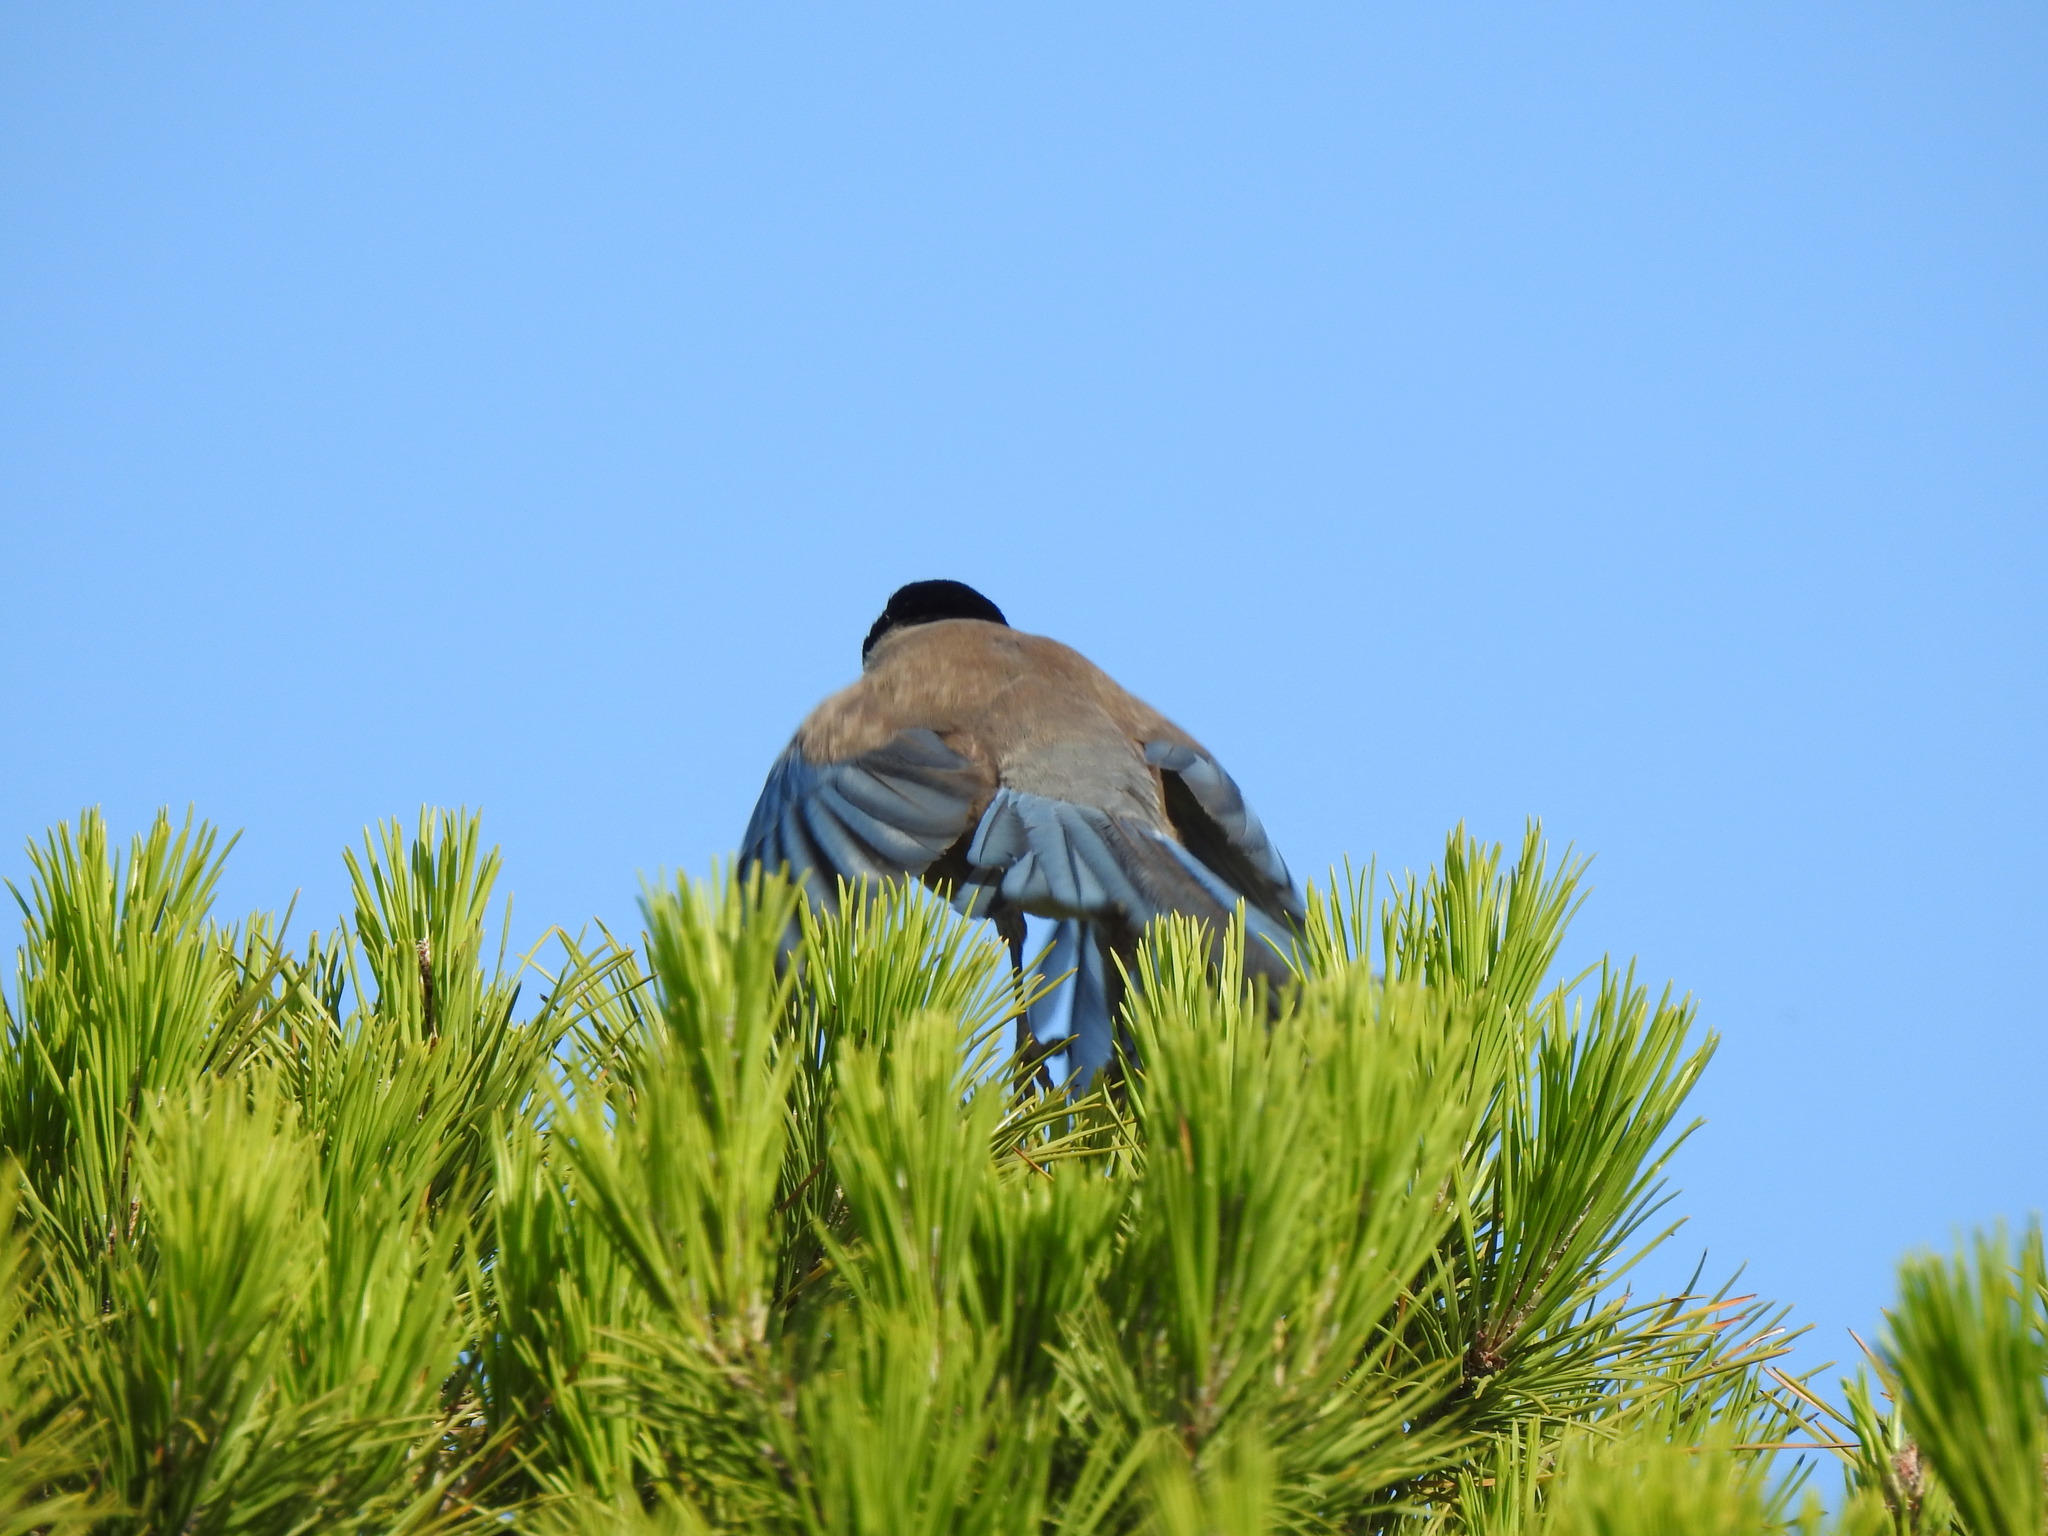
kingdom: Animalia
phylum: Chordata
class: Aves
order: Passeriformes
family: Corvidae
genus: Cyanopica
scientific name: Cyanopica cooki
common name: Iberian magpie
